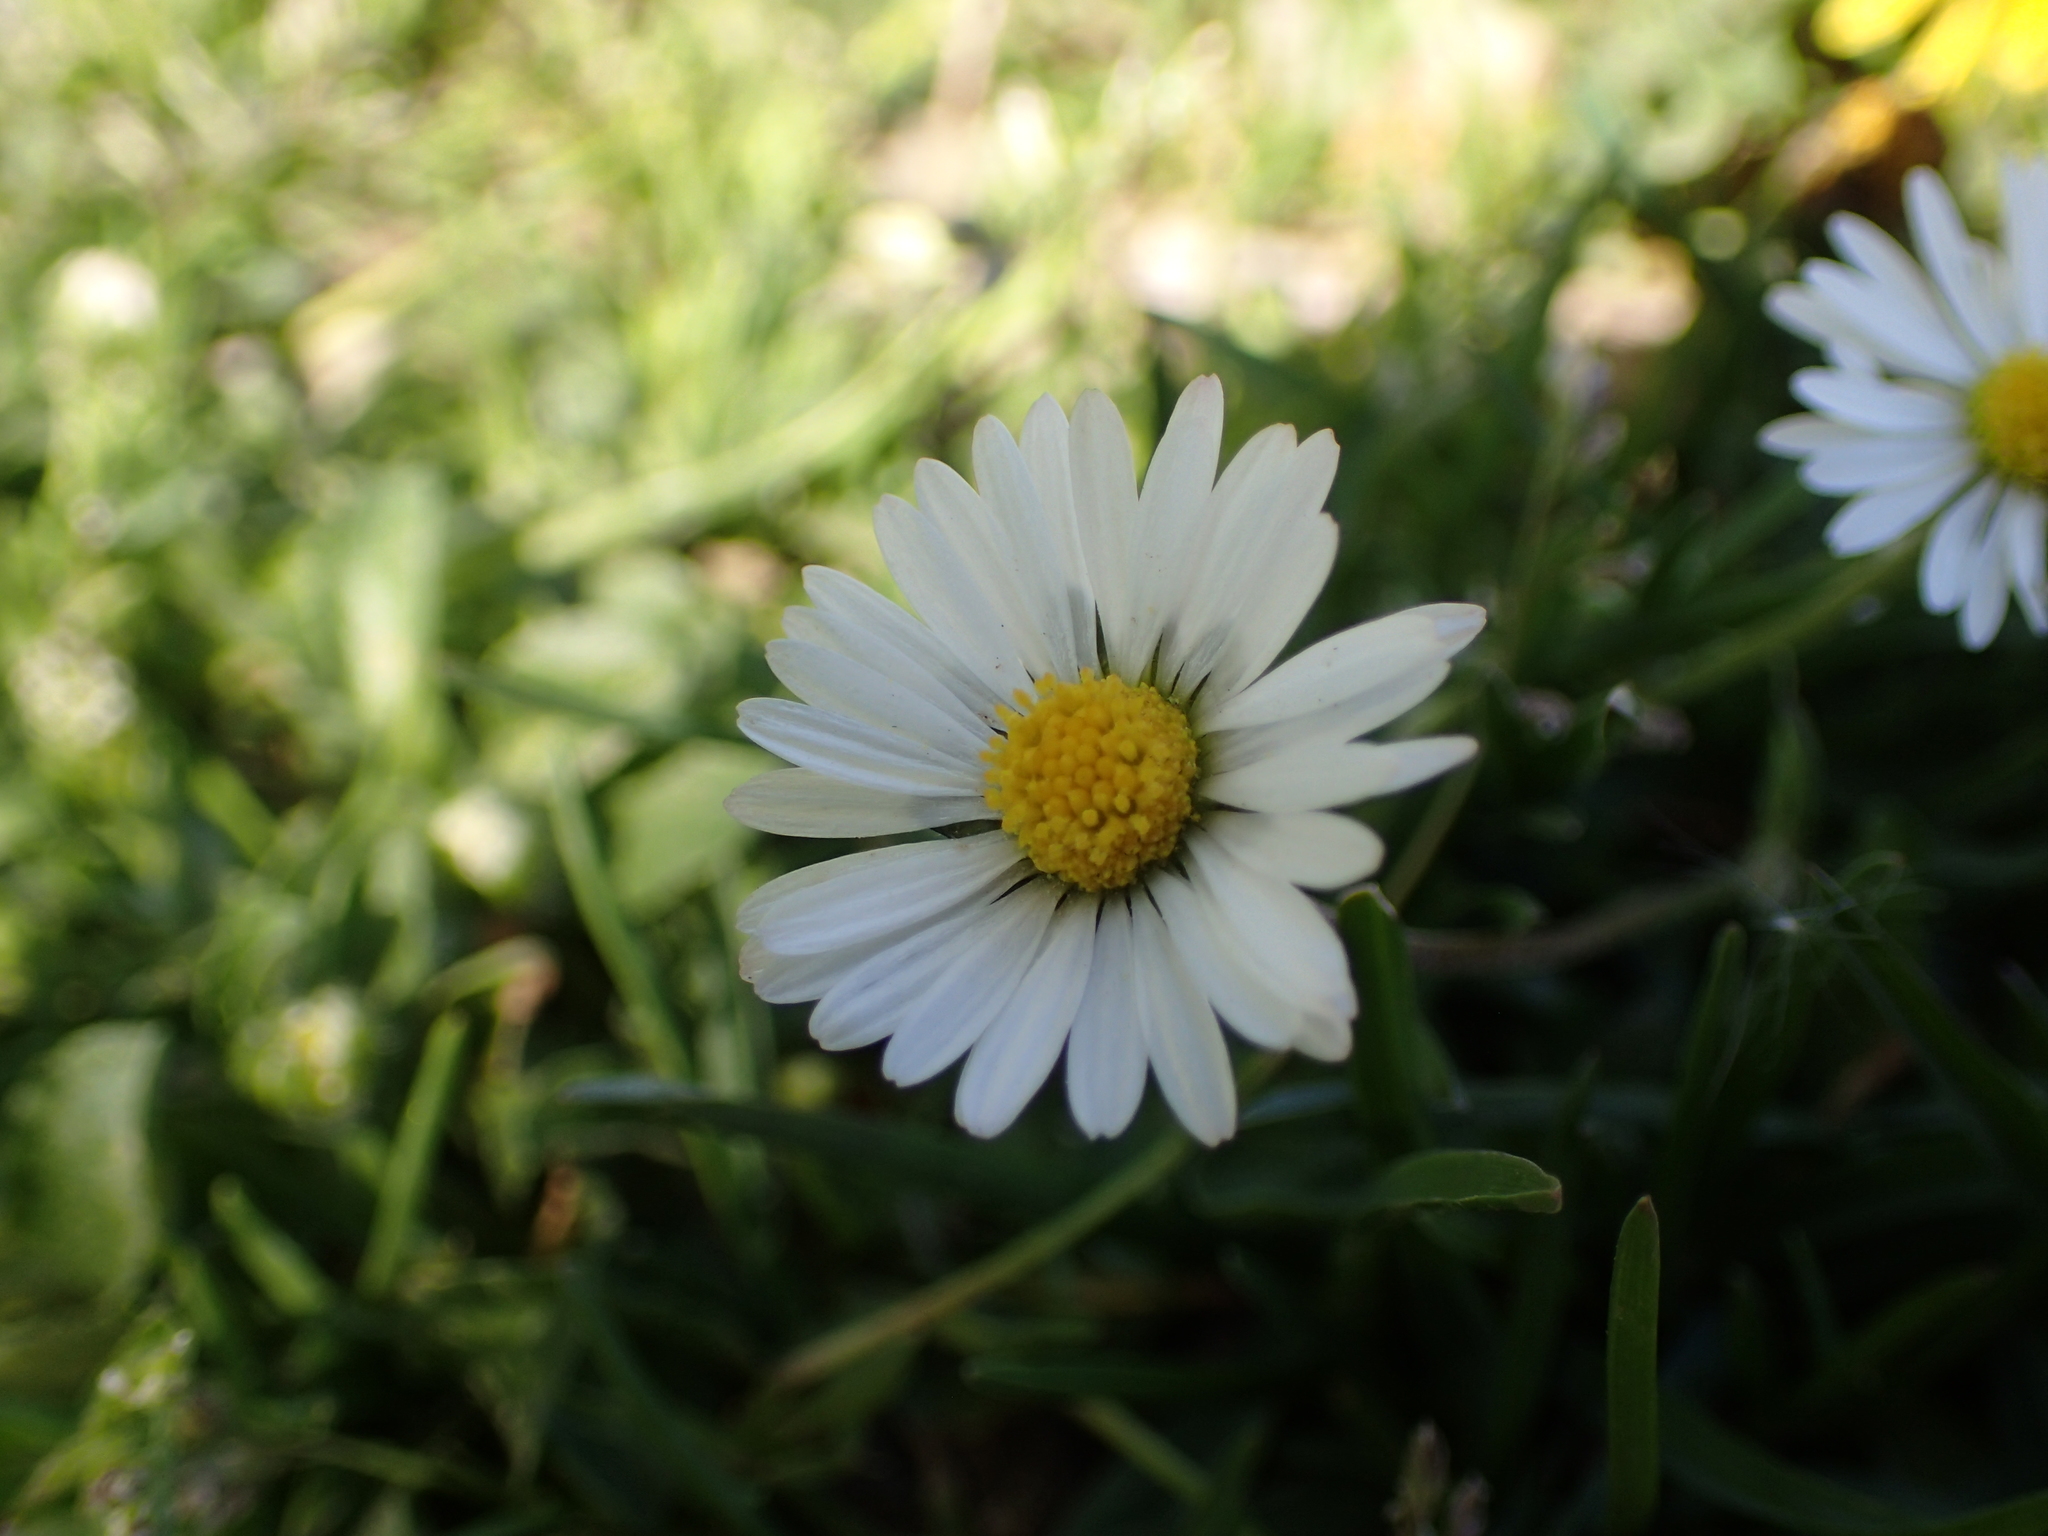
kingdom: Plantae
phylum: Tracheophyta
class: Magnoliopsida
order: Asterales
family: Asteraceae
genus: Bellis
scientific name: Bellis perennis
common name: Lawndaisy
